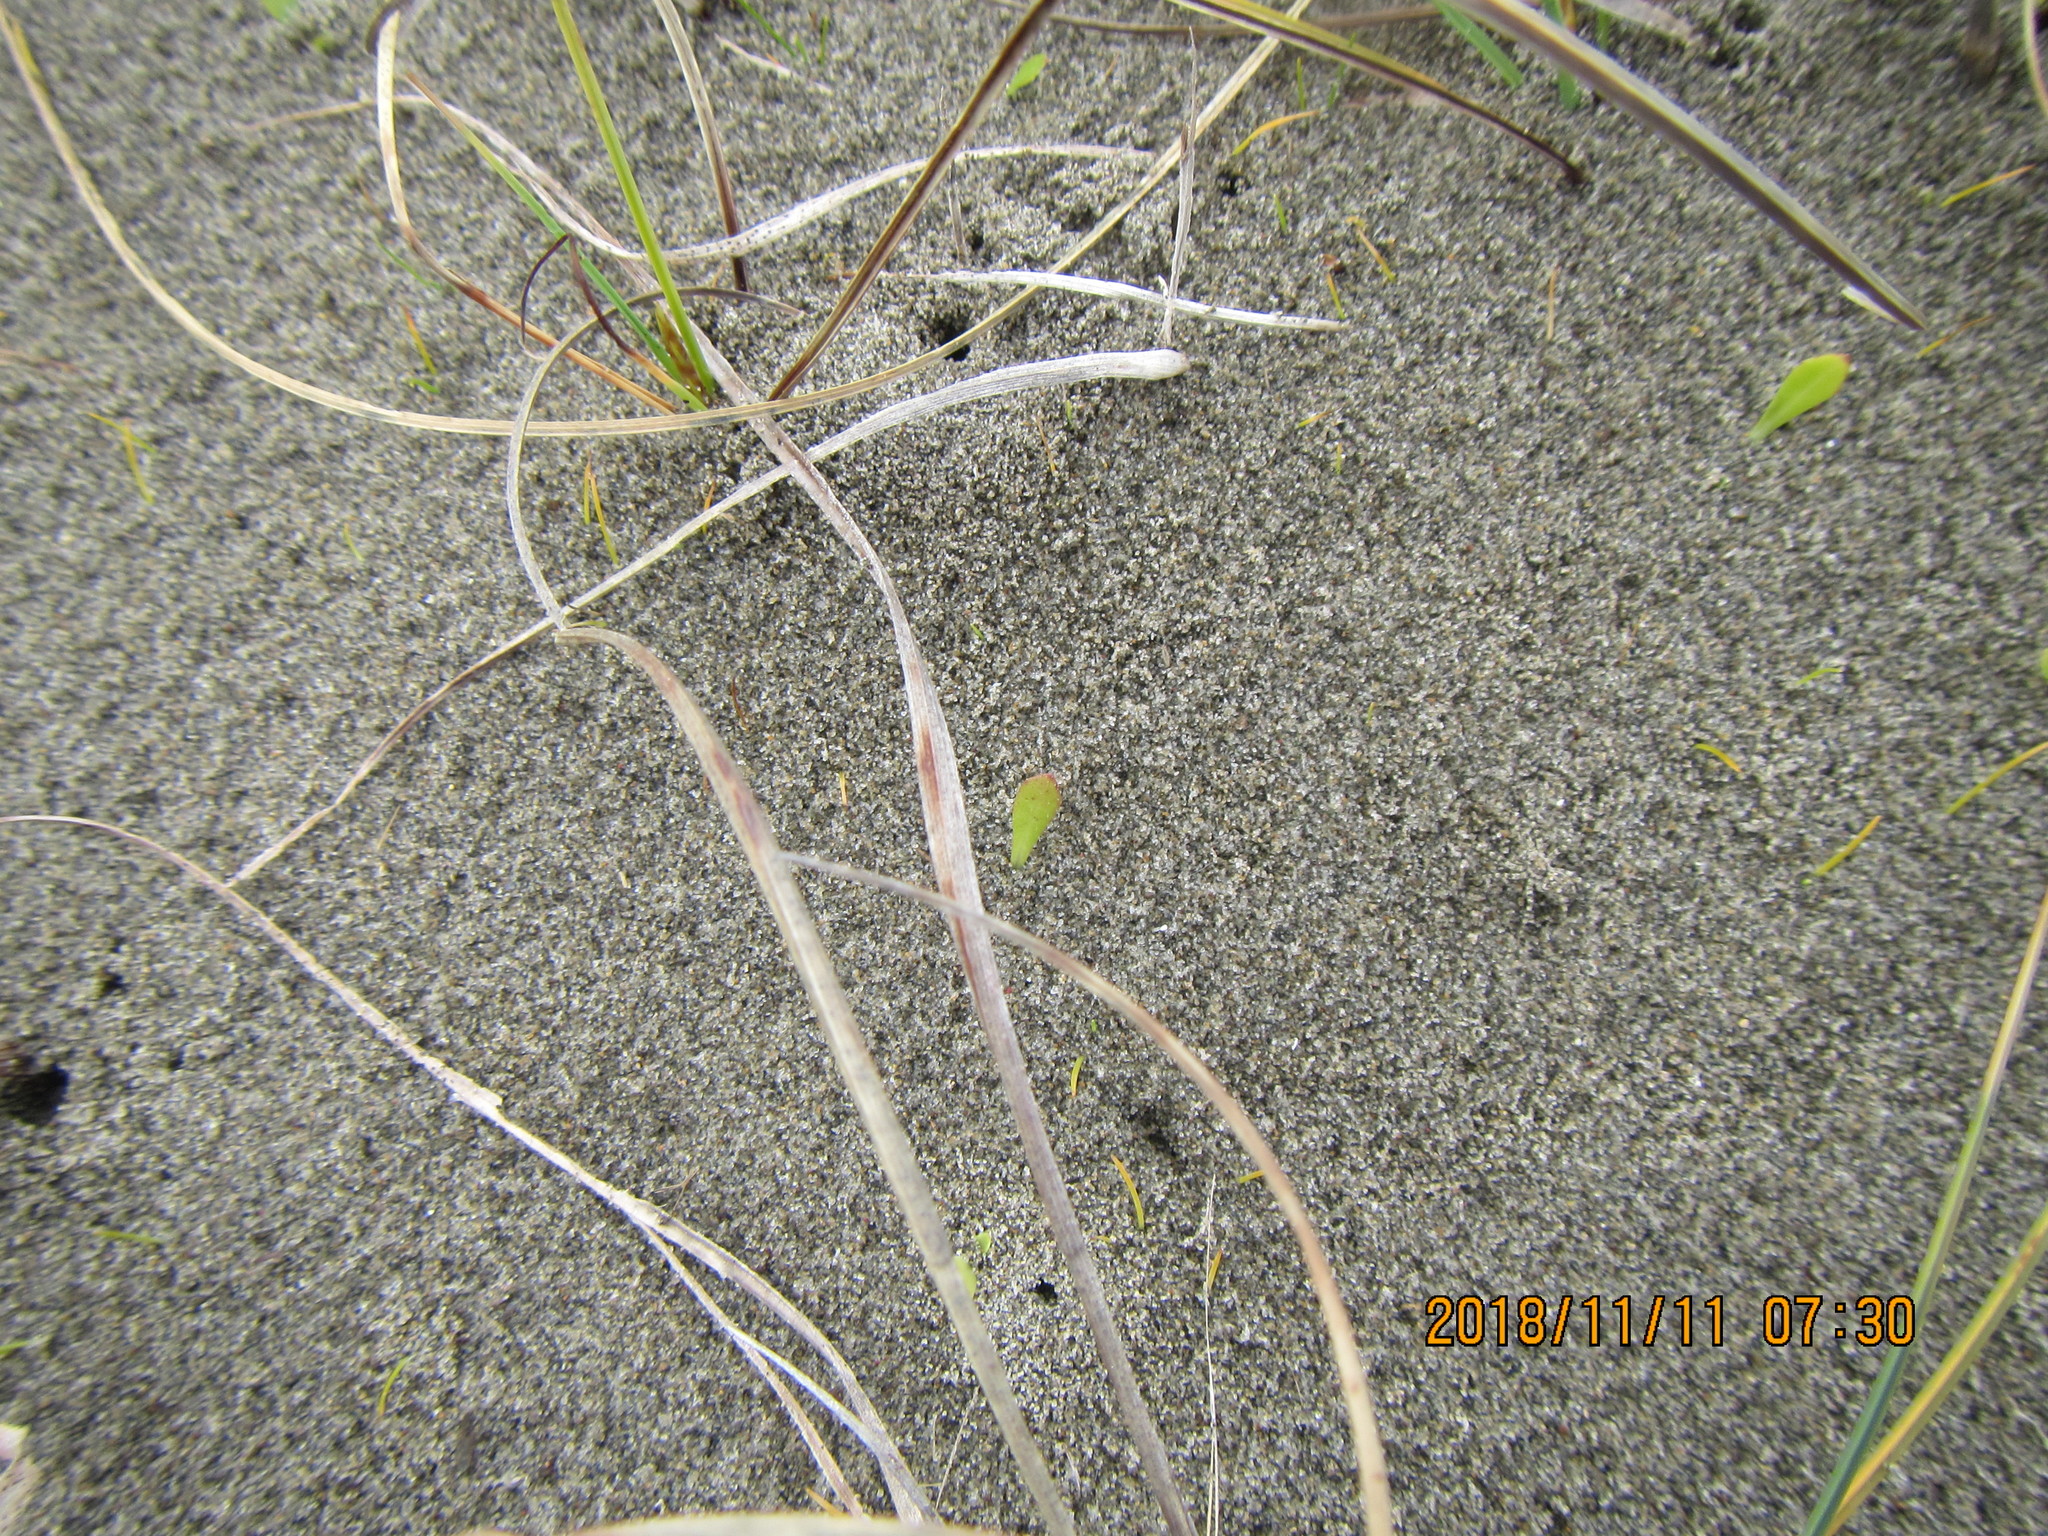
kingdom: Animalia
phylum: Arthropoda
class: Arachnida
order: Araneae
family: Lycosidae
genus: Anoteropsis
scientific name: Anoteropsis litoralis
